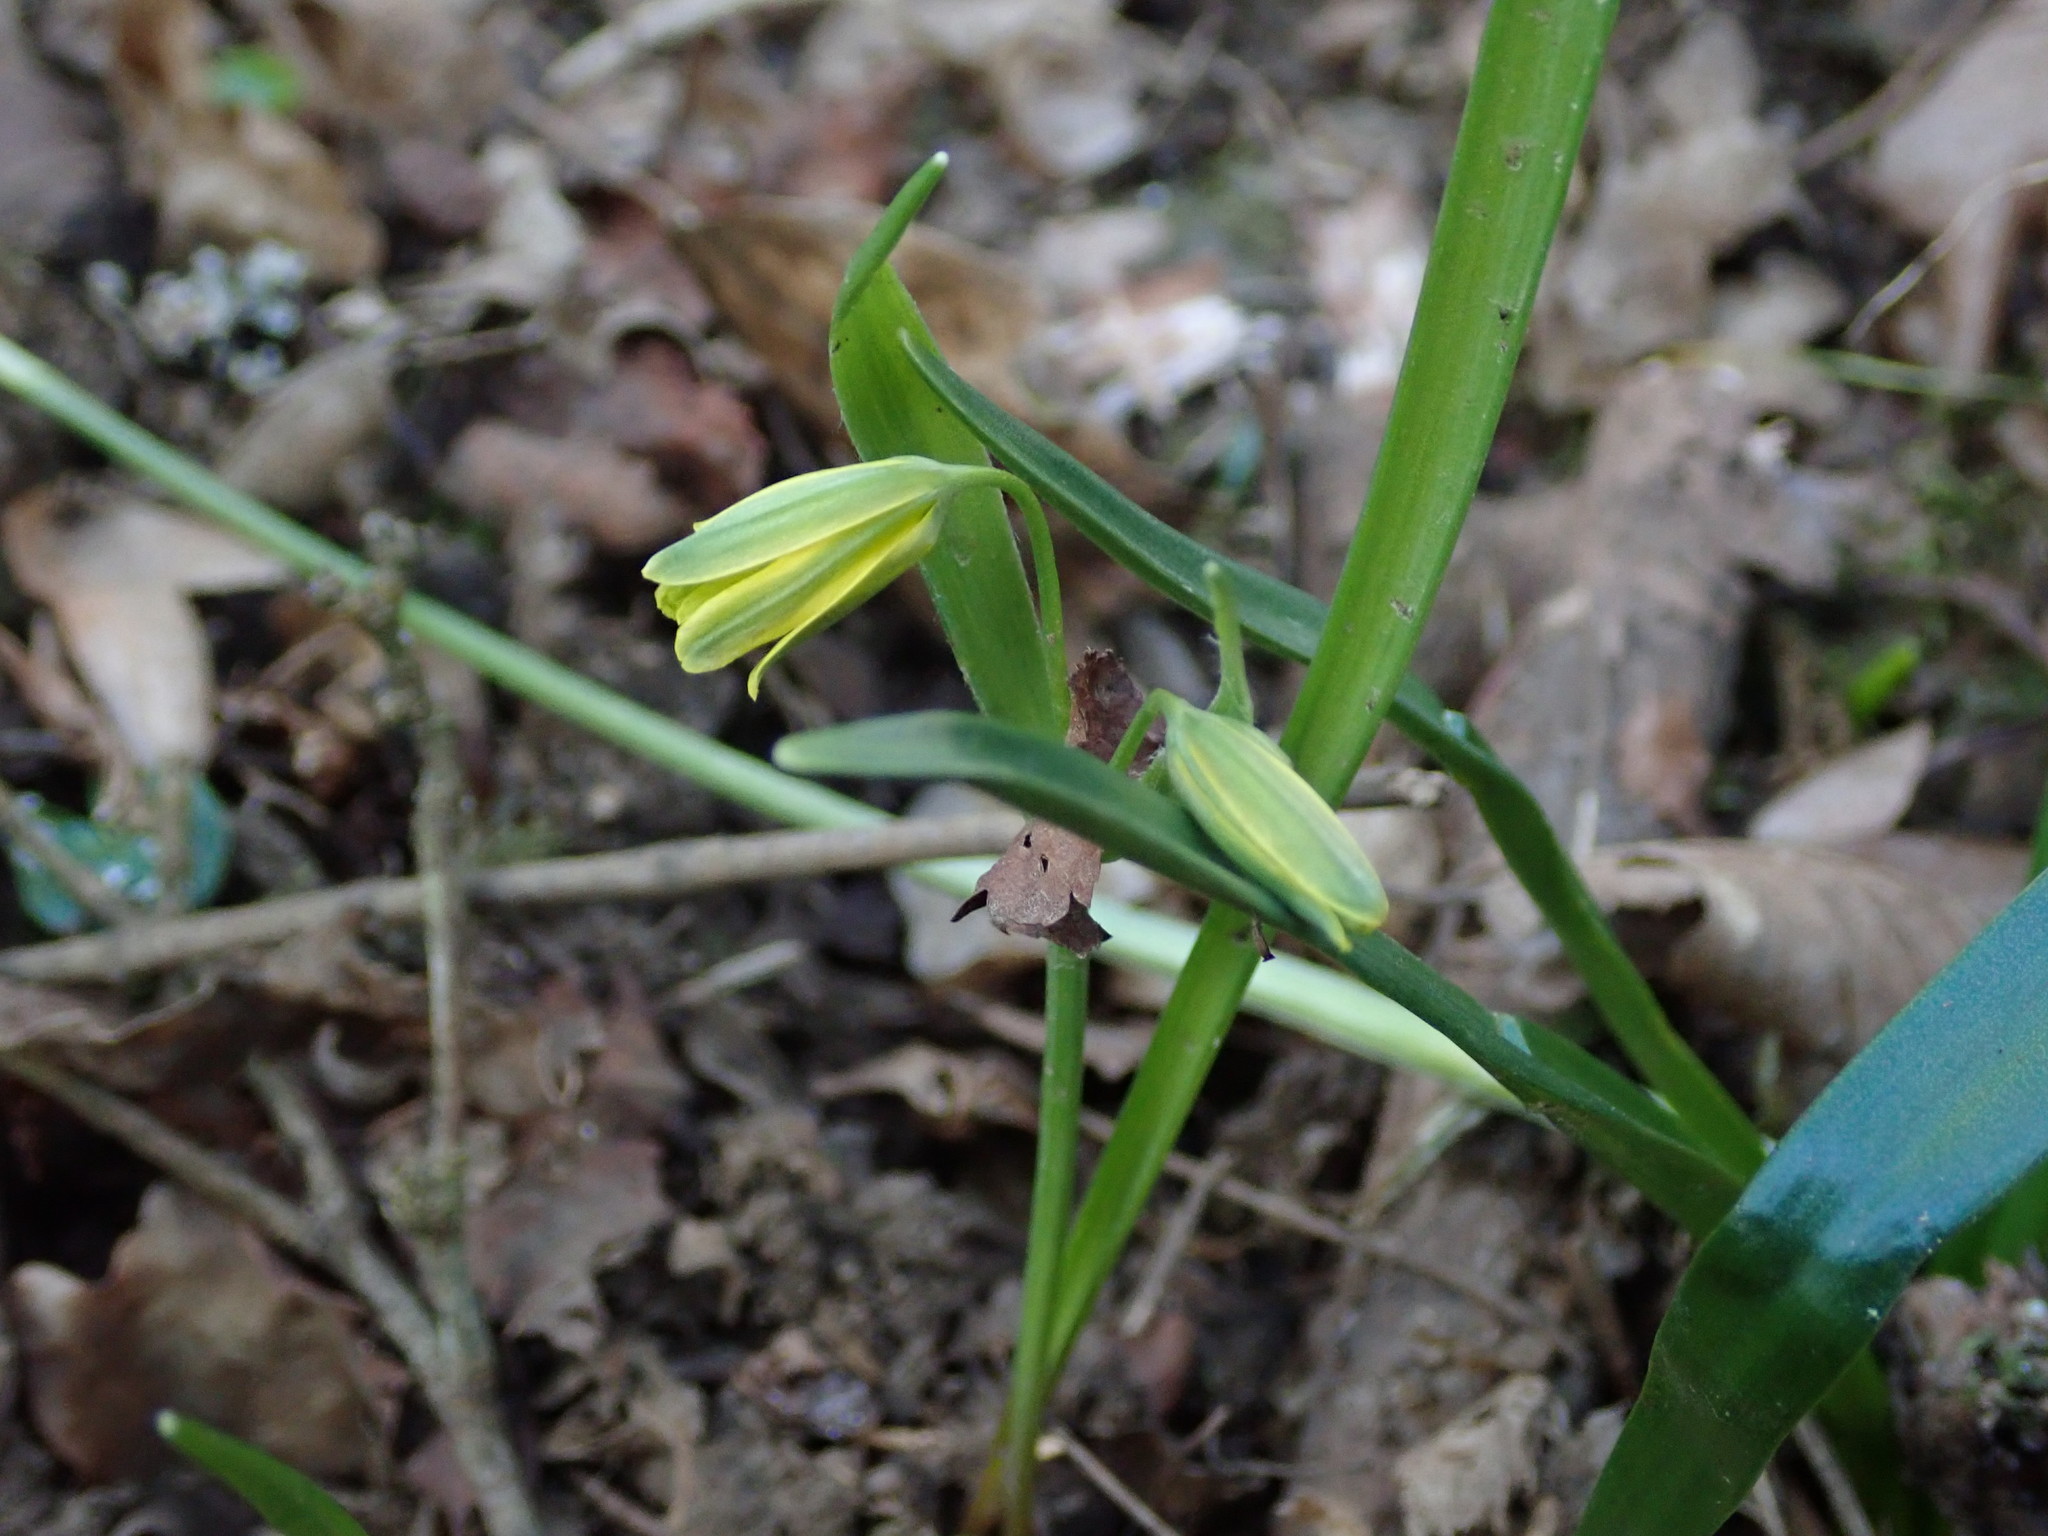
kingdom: Plantae
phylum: Tracheophyta
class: Liliopsida
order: Liliales
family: Liliaceae
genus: Gagea
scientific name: Gagea lutea
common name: Yellow star-of-bethlehem
